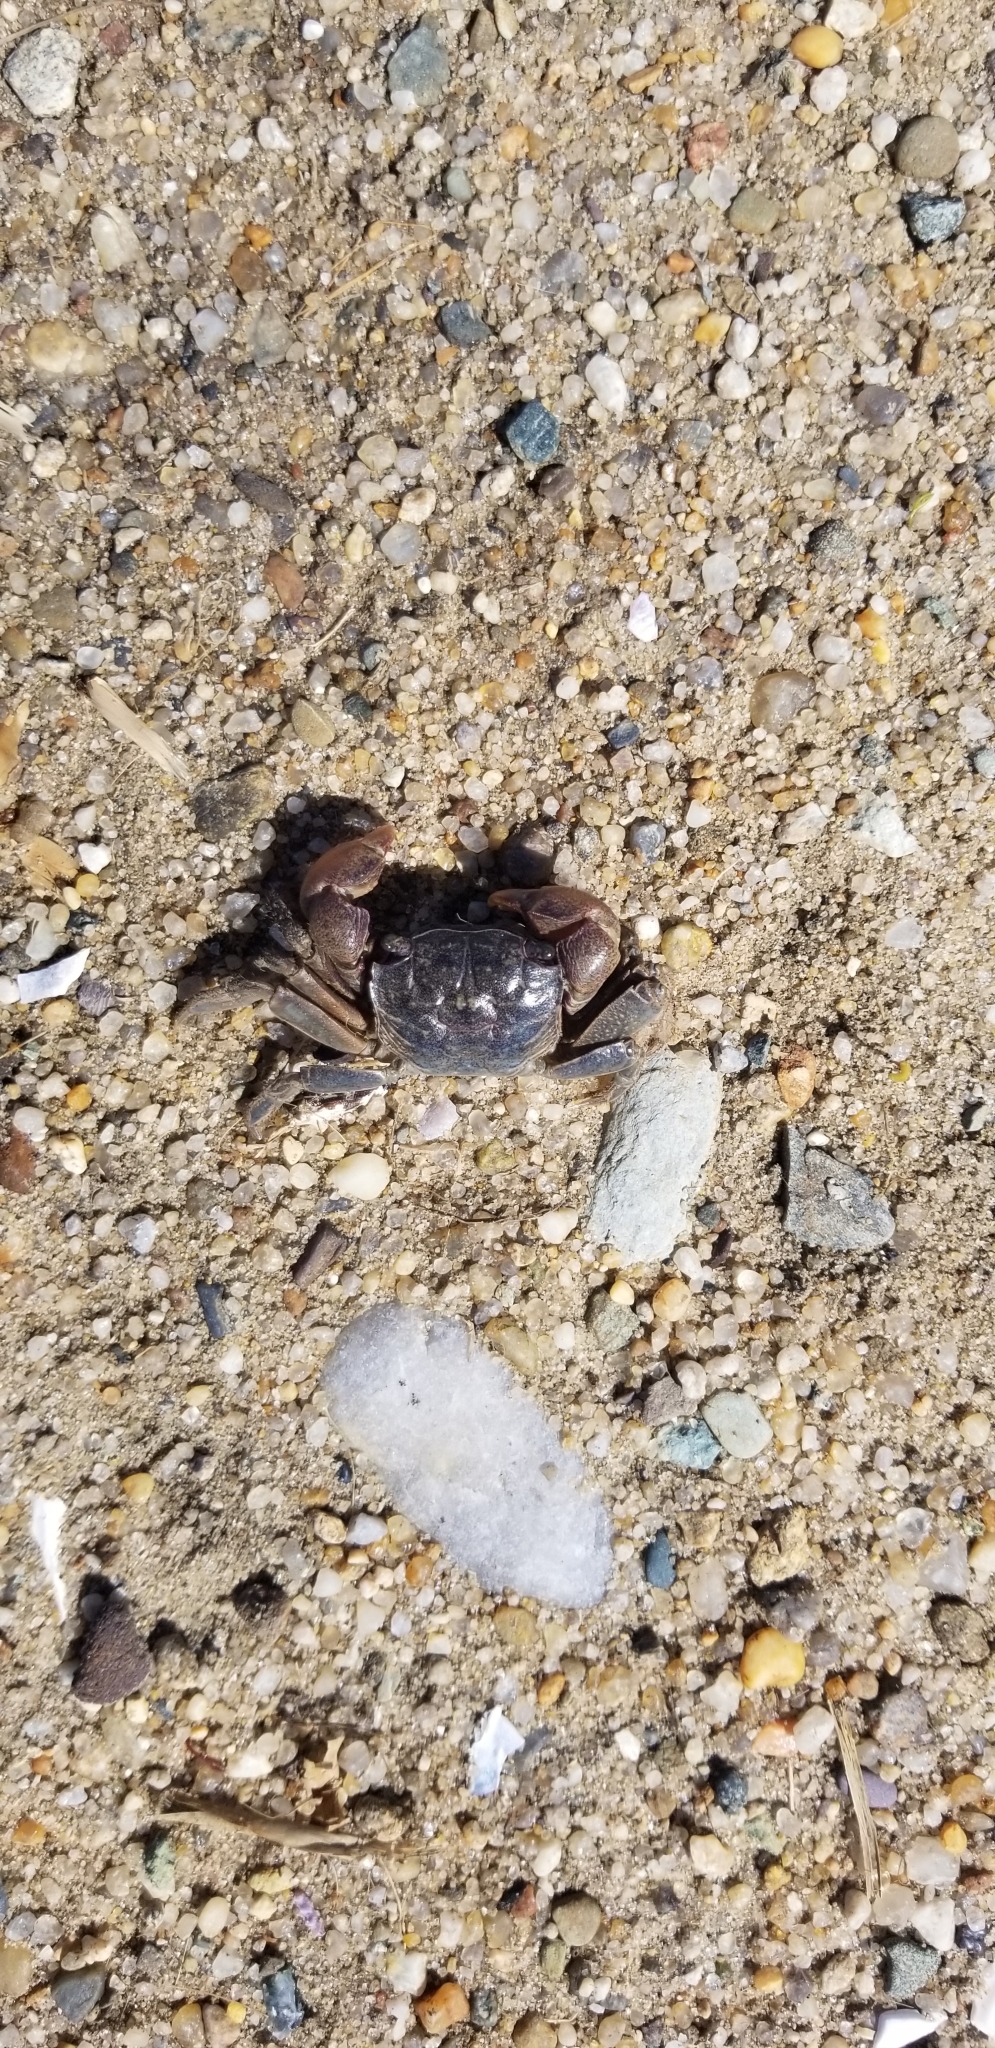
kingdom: Animalia
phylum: Arthropoda
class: Malacostraca
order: Decapoda
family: Sesarmidae
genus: Sesarma
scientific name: Sesarma reticulatum
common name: Heavy marsh crab
